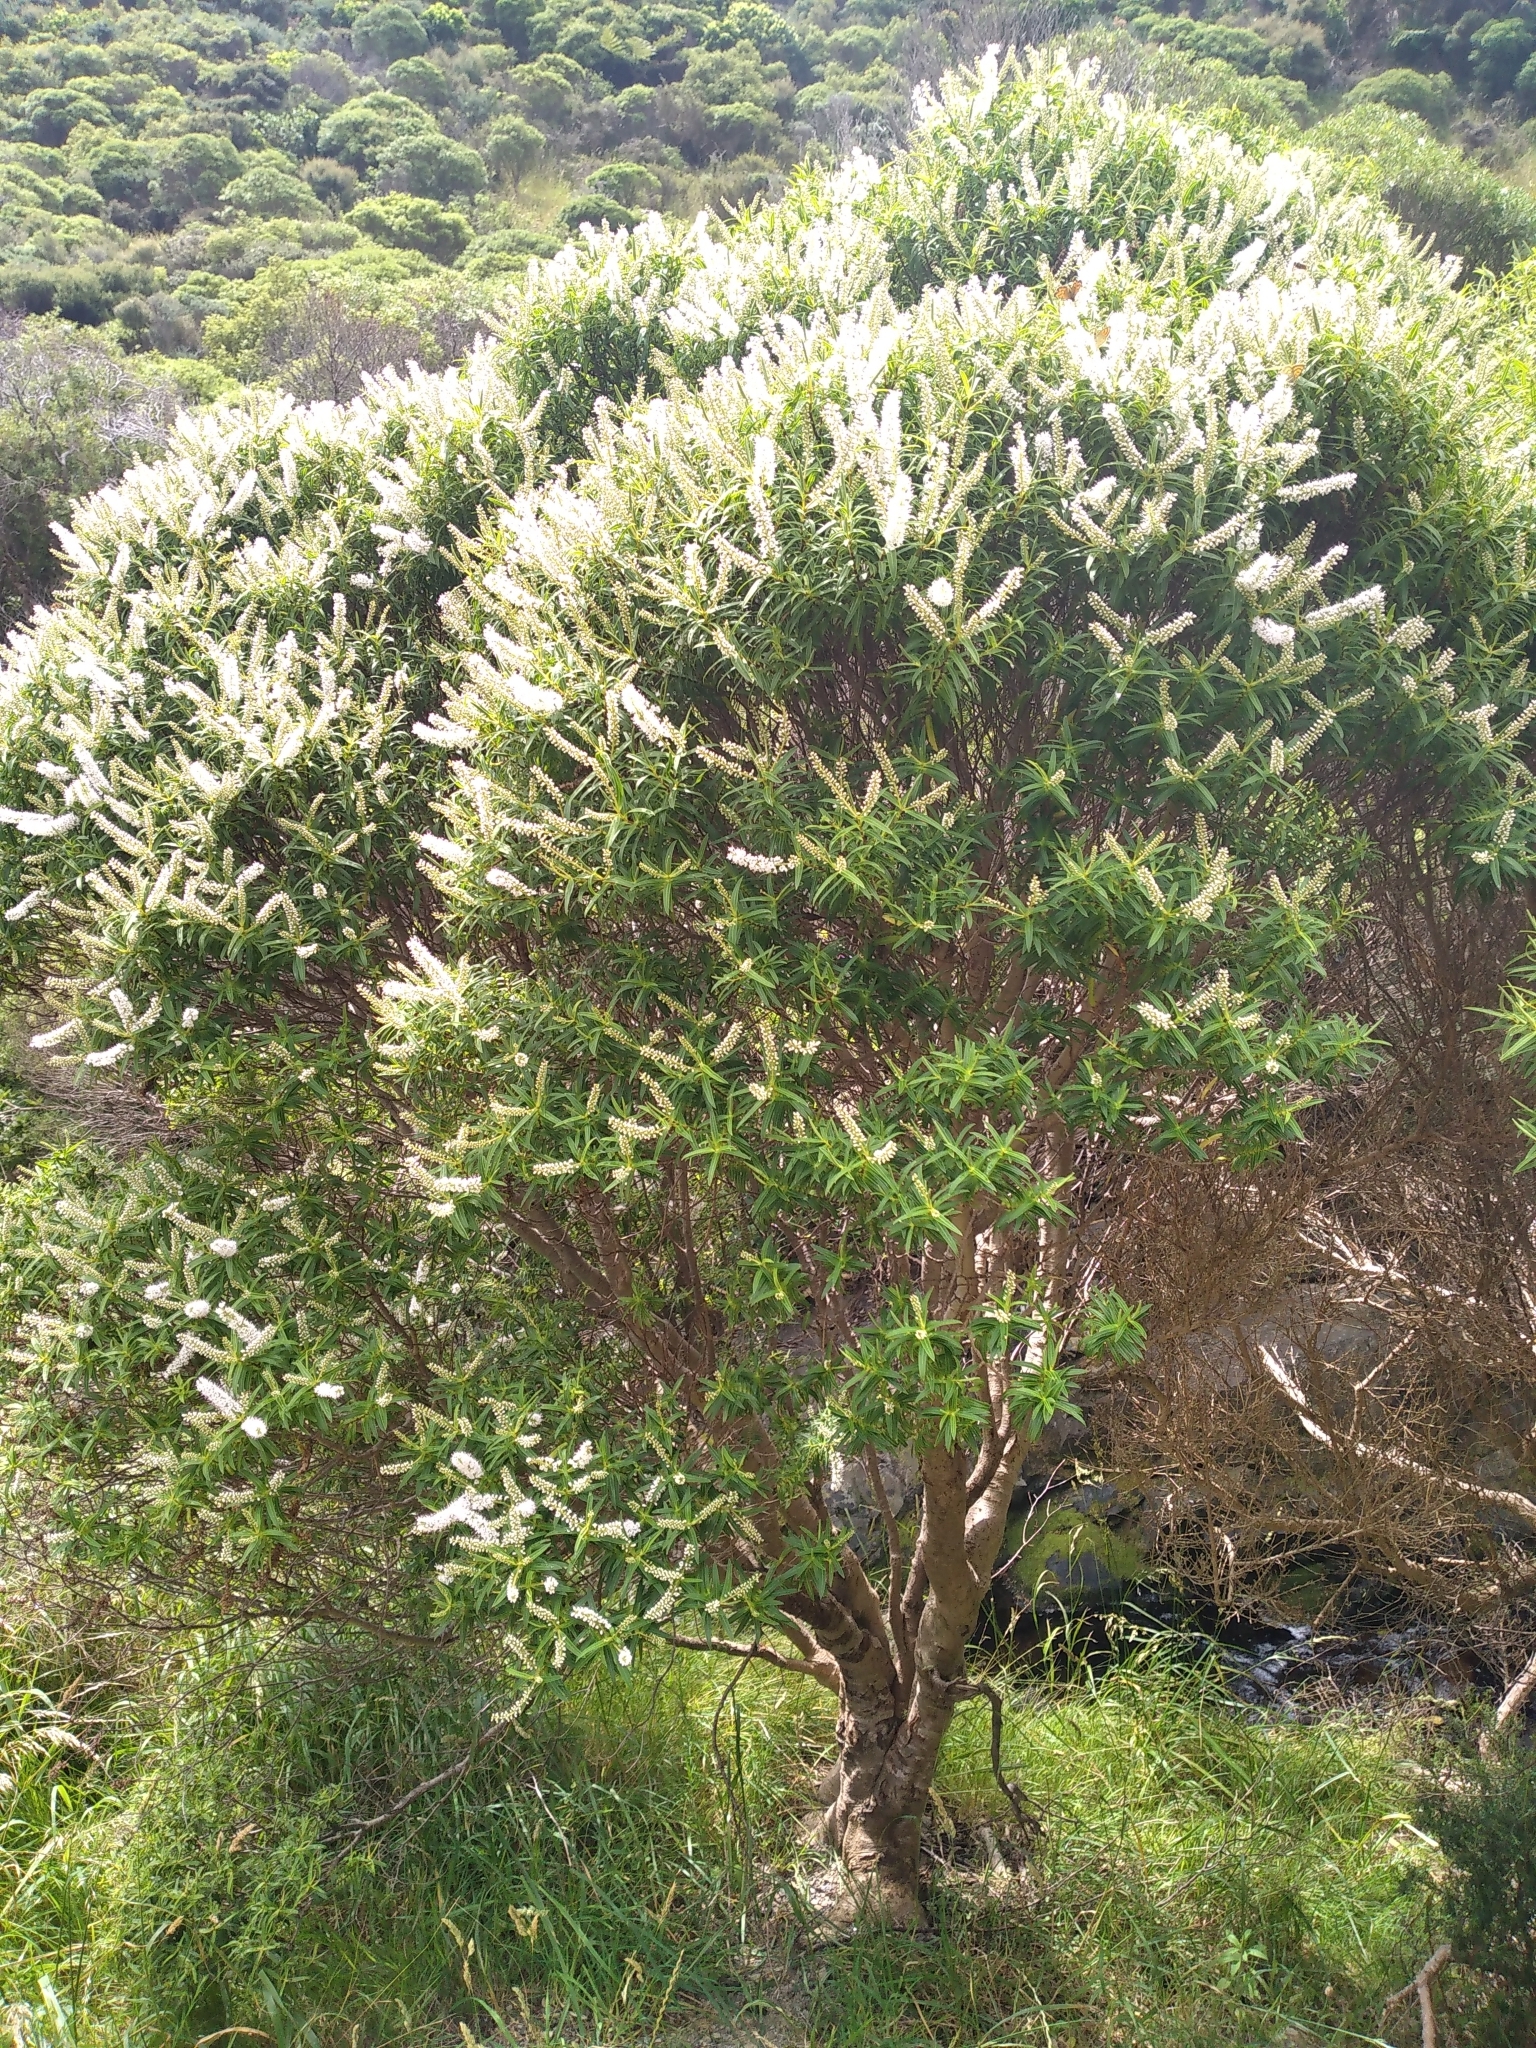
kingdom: Plantae
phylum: Tracheophyta
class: Magnoliopsida
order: Lamiales
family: Plantaginaceae
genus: Veronica
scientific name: Veronica parviflora
